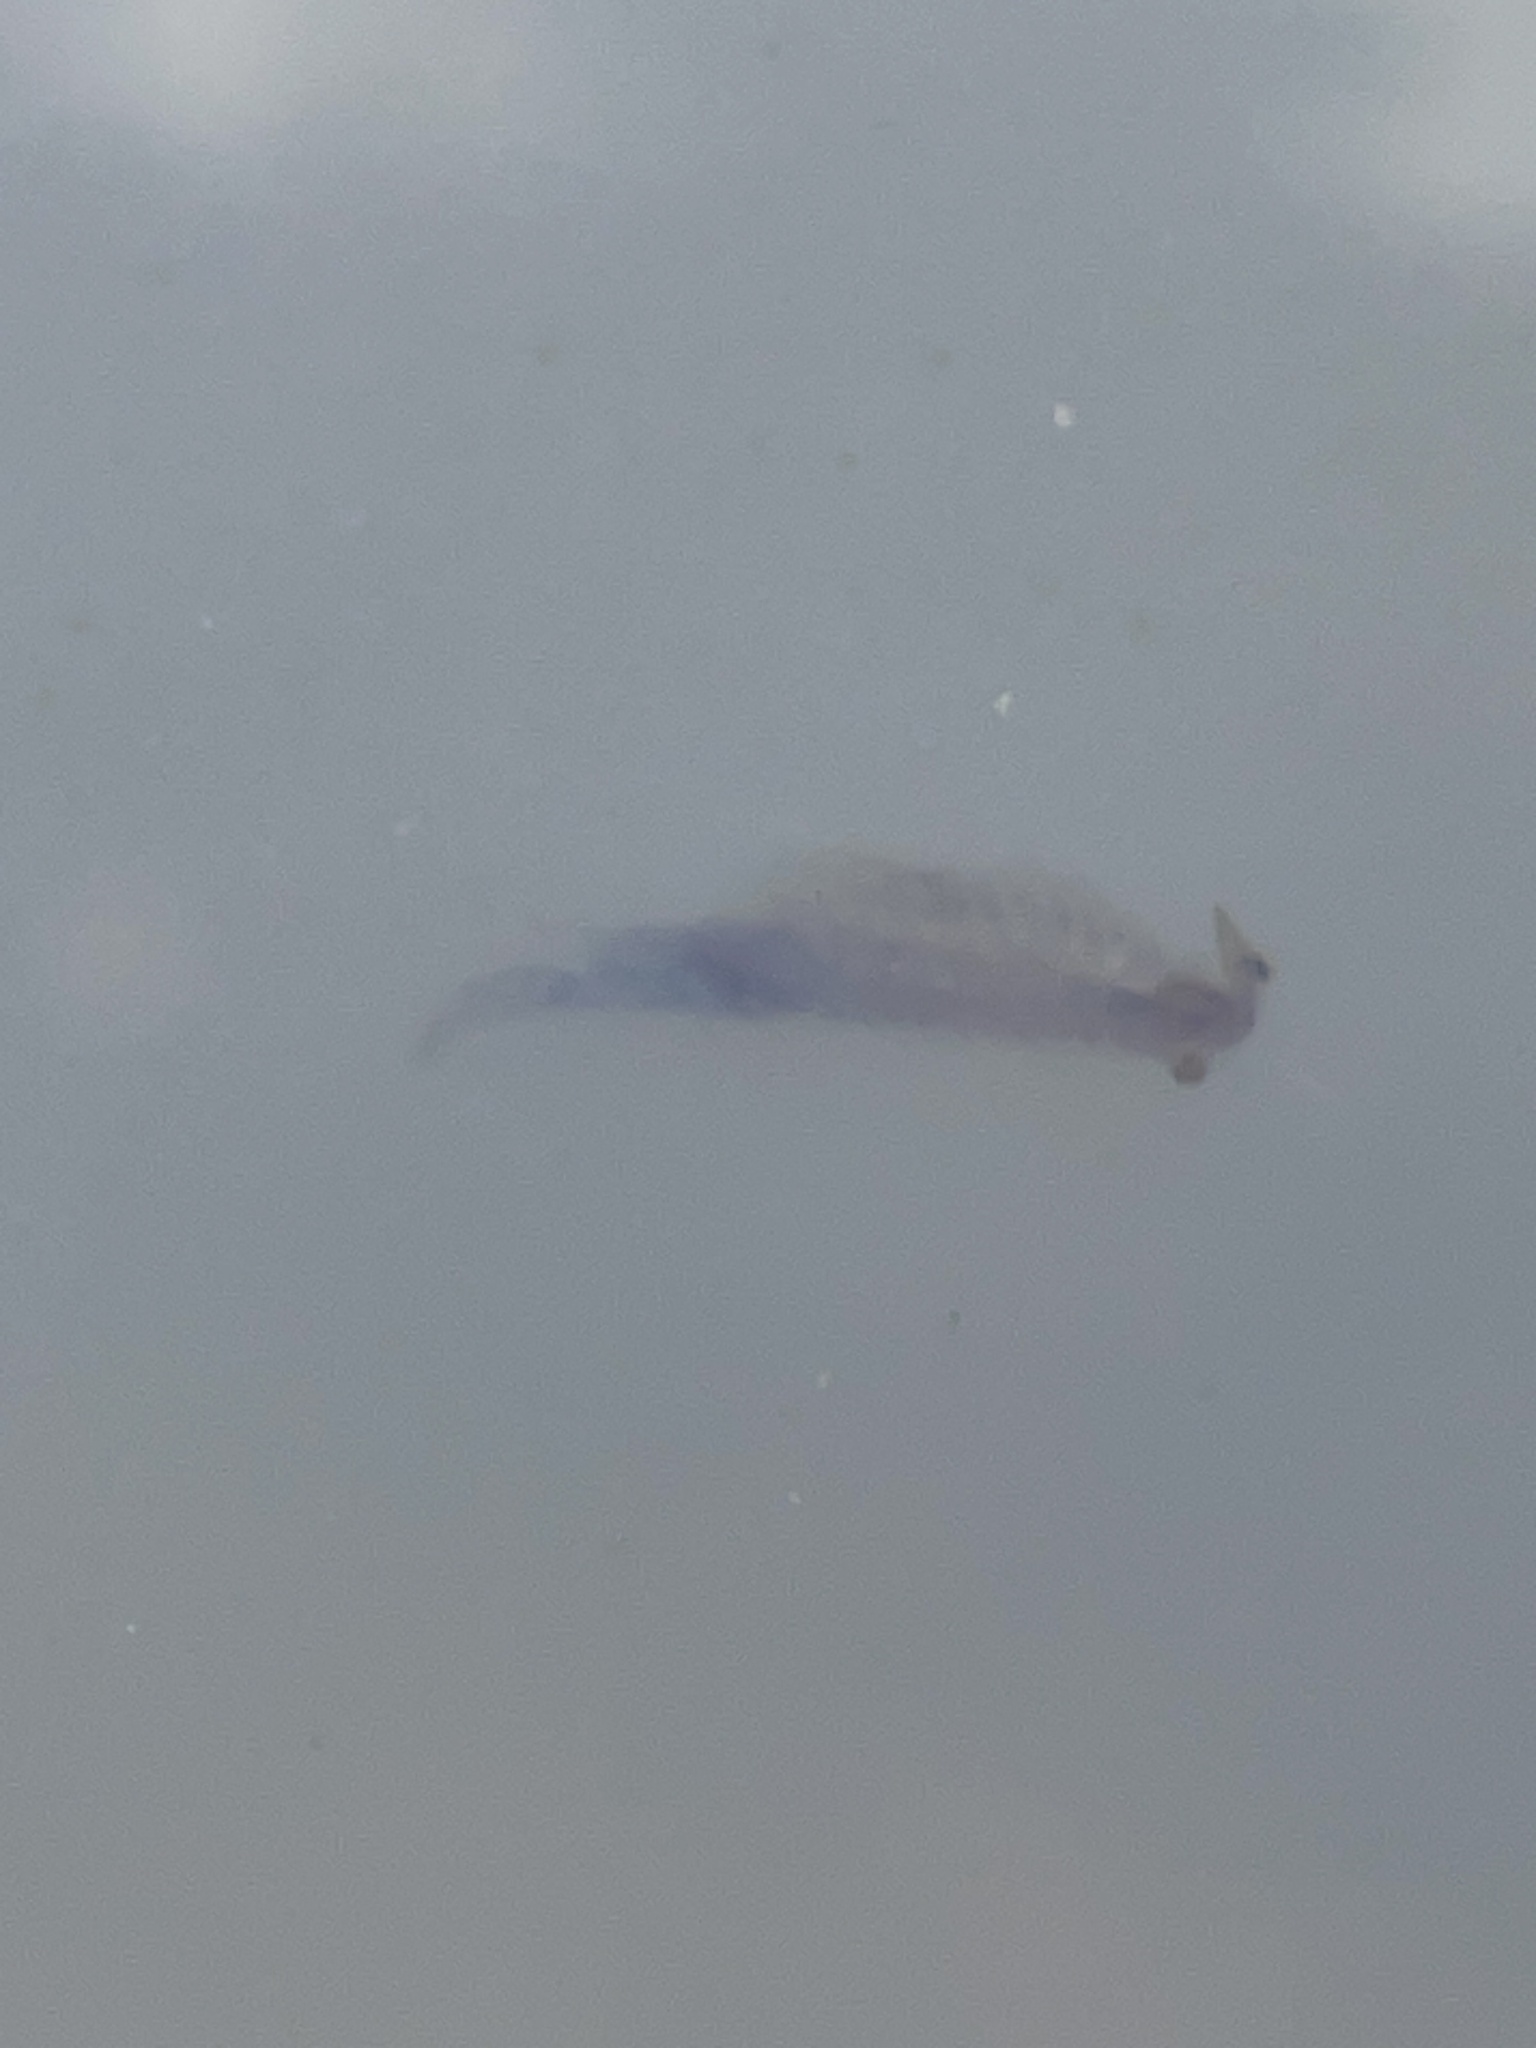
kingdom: Animalia
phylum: Arthropoda
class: Branchiopoda
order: Anostraca
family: Streptocephalidae
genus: Streptocephalus
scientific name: Streptocephalus sealii
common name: Spiny-tail fairy shrimp
